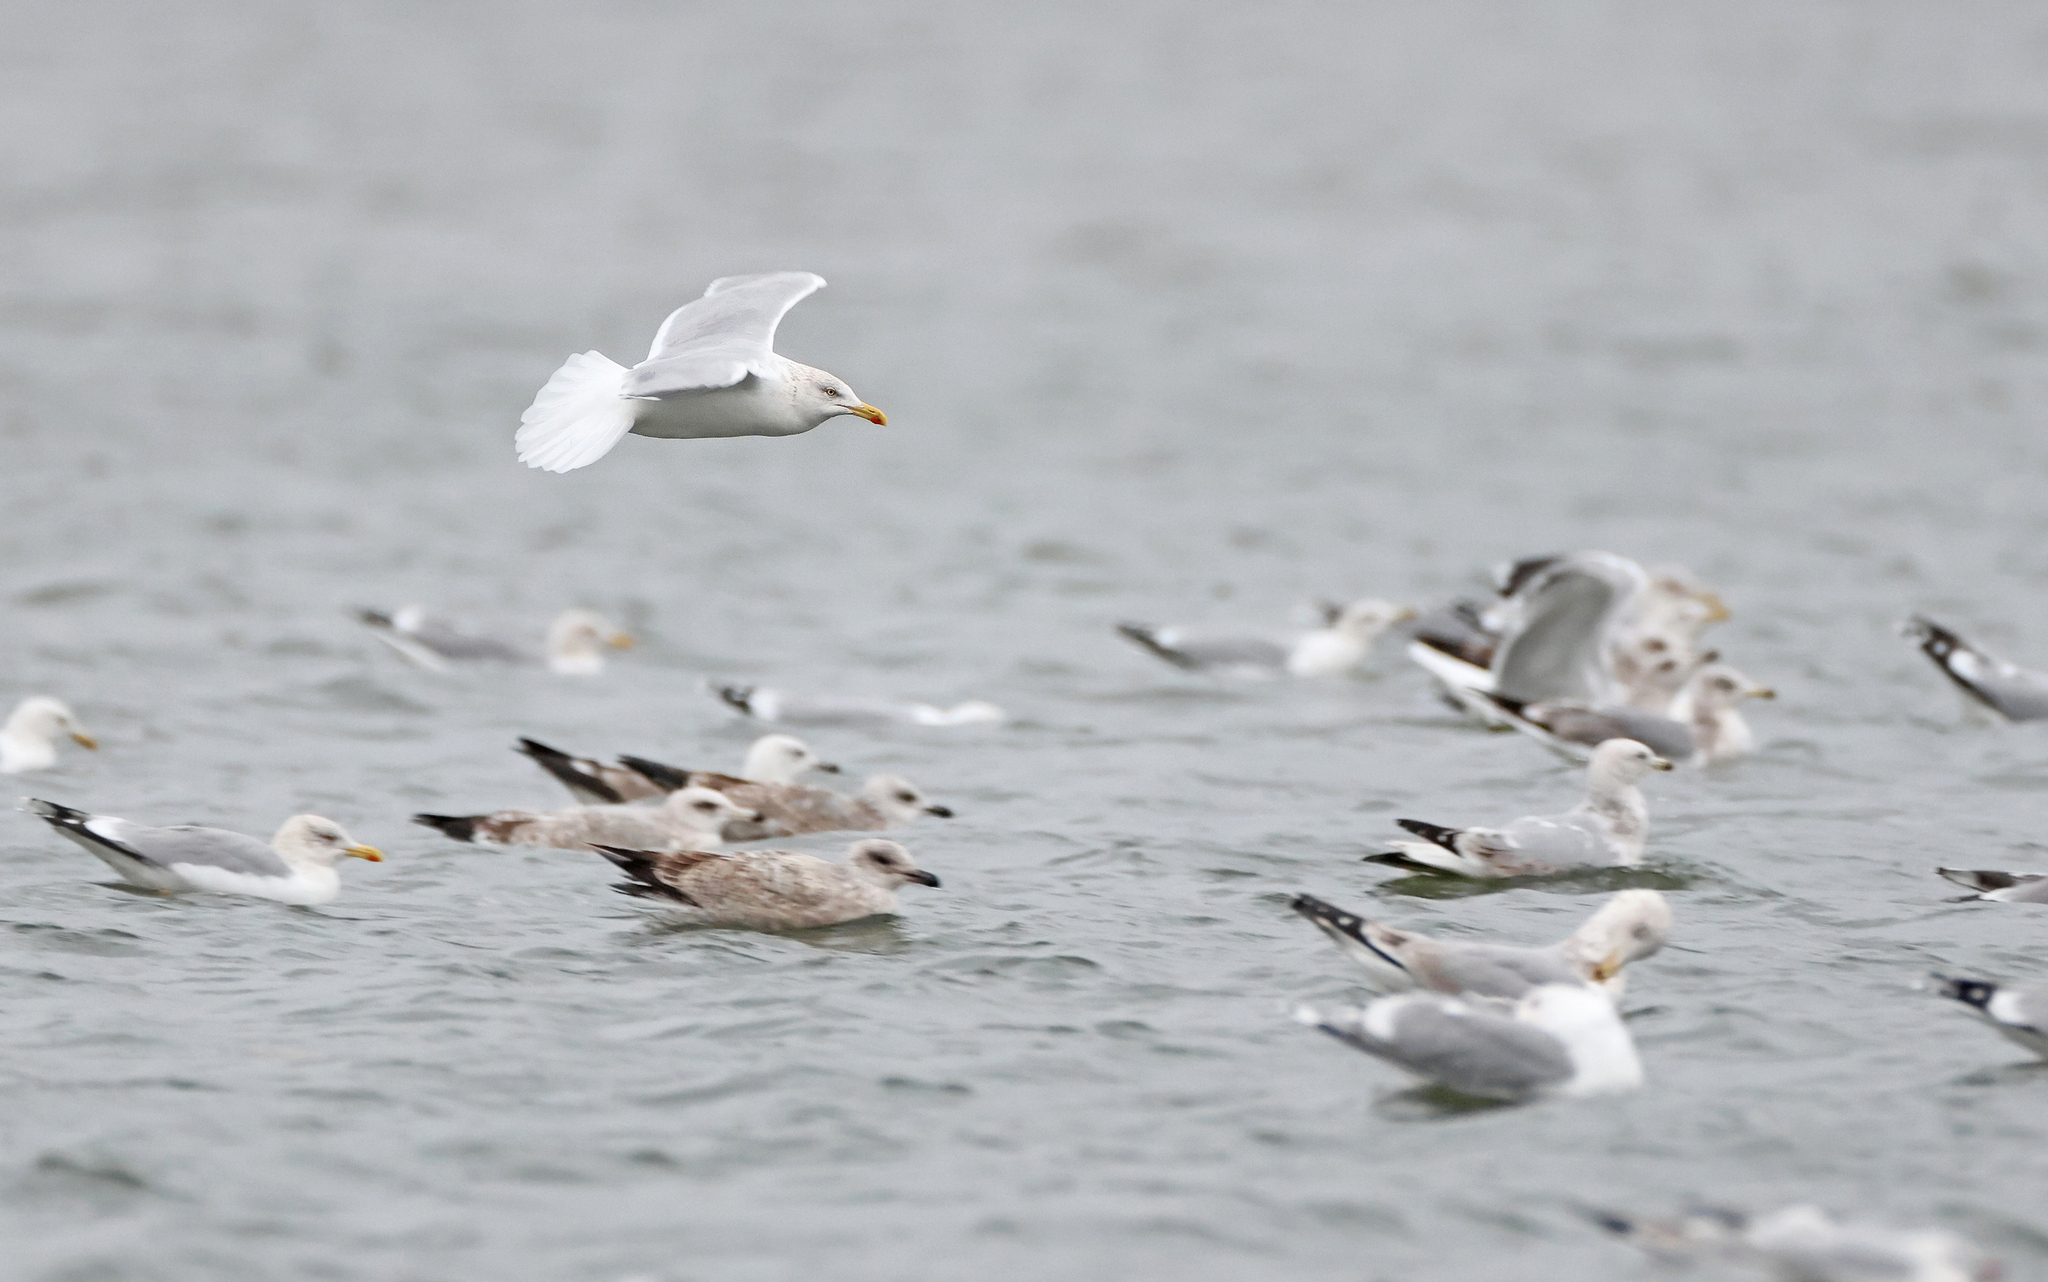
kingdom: Animalia
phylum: Chordata
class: Aves
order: Charadriiformes
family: Laridae
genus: Larus
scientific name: Larus argentatus
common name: Herring gull
